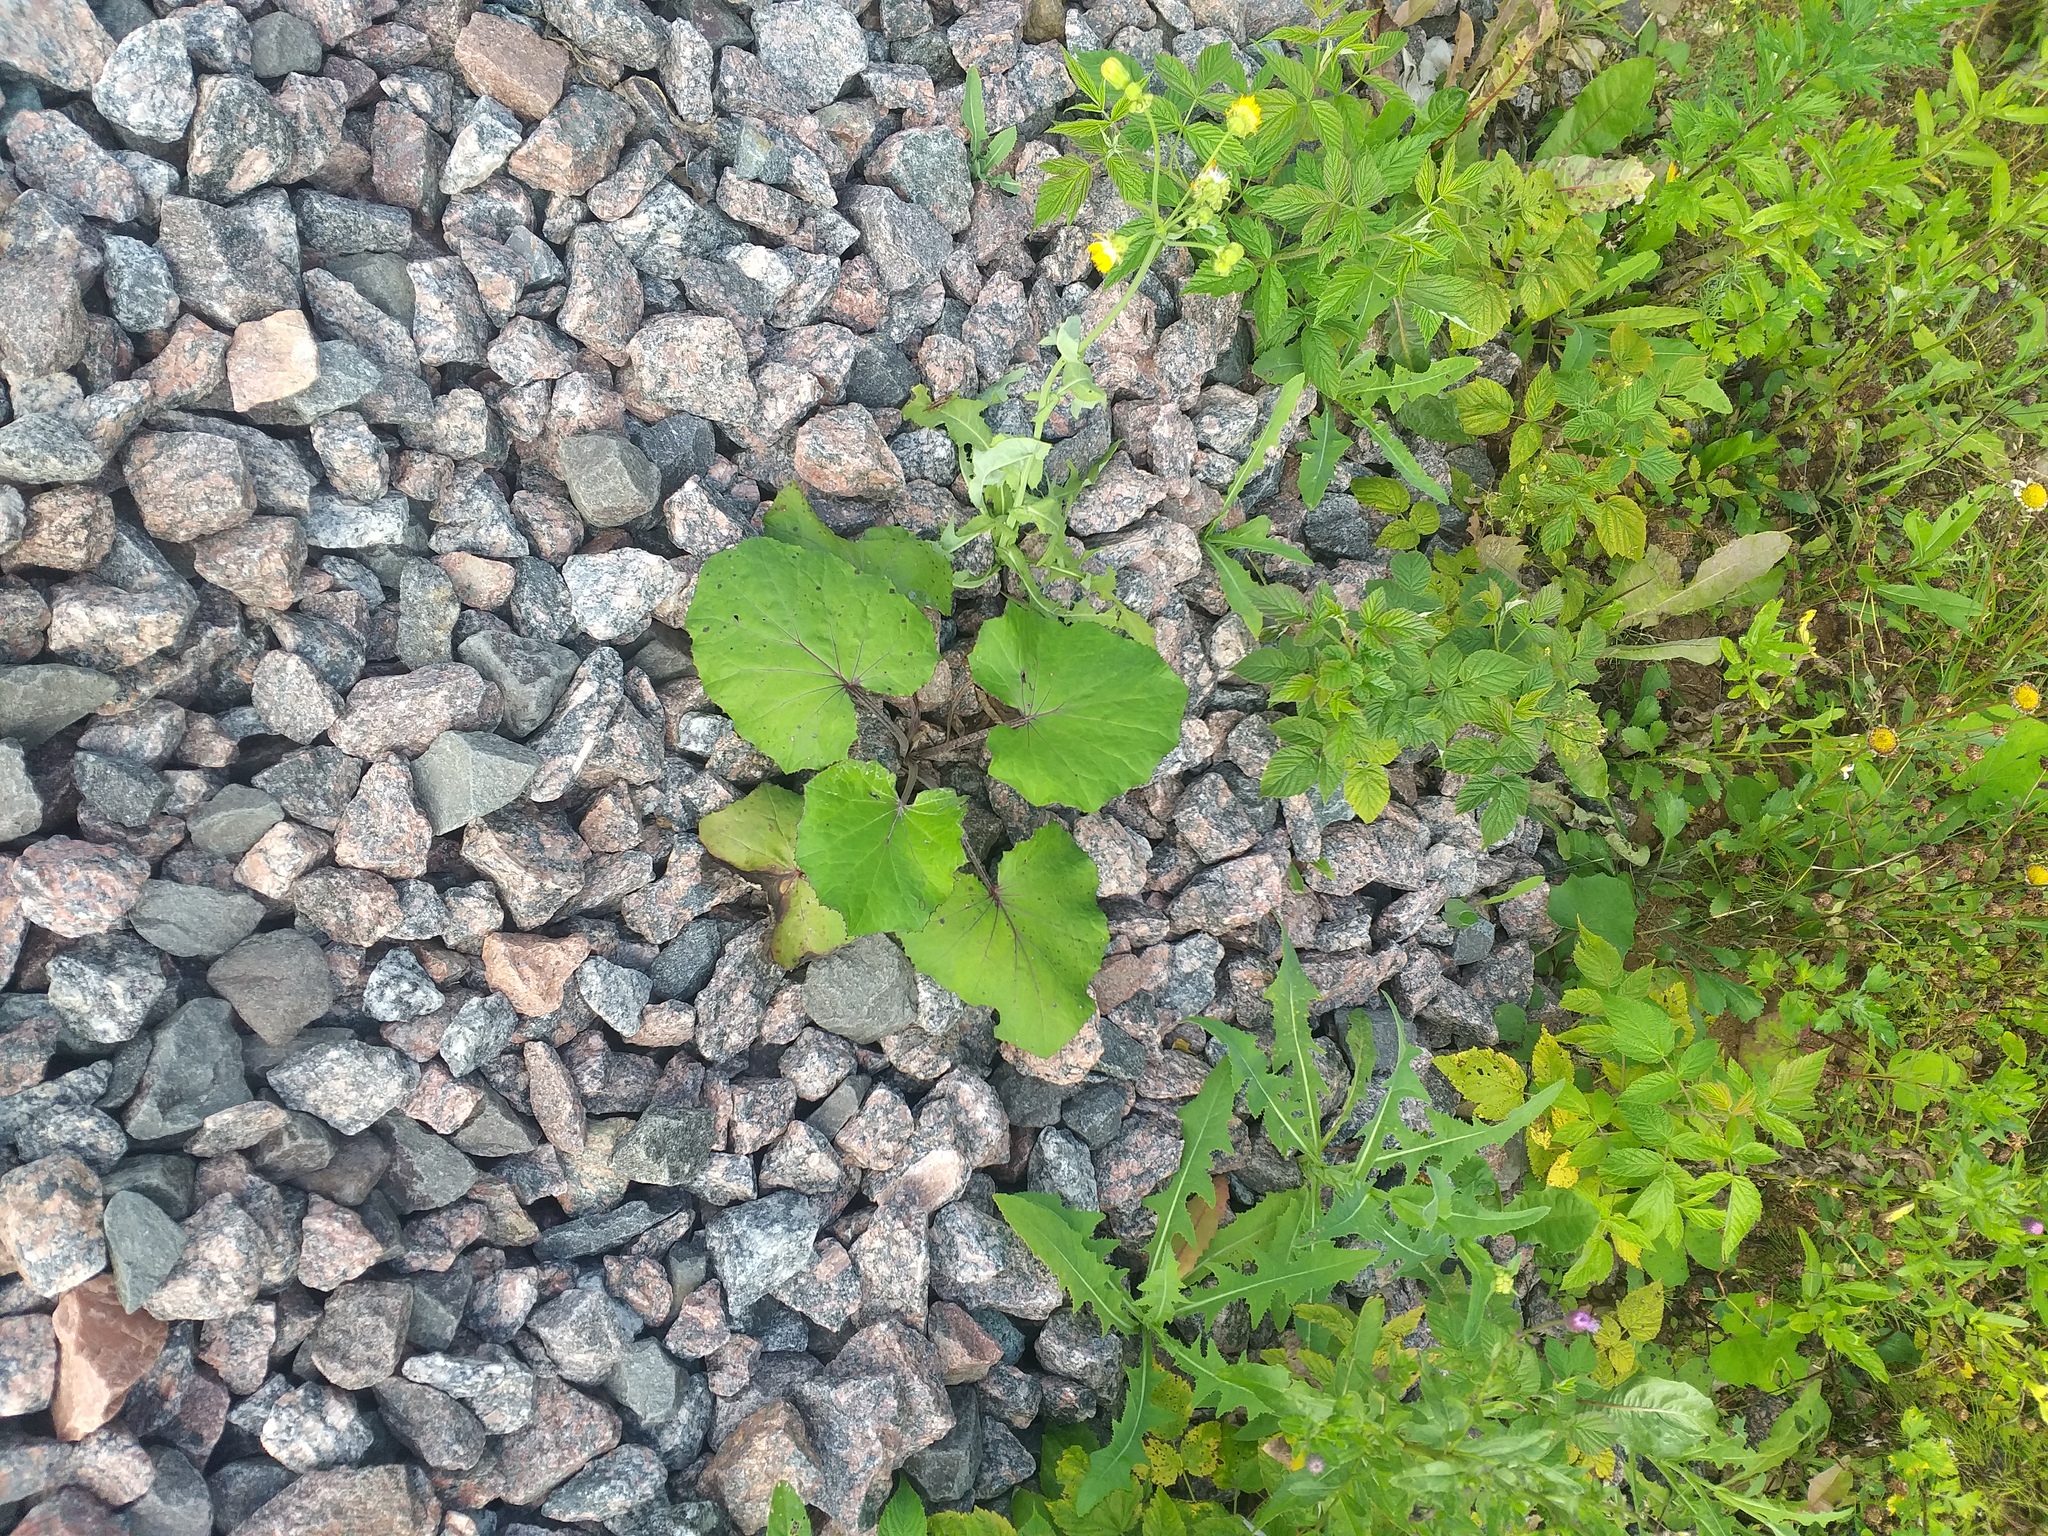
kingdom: Plantae
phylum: Tracheophyta
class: Magnoliopsida
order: Asterales
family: Asteraceae
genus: Tussilago
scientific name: Tussilago farfara
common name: Coltsfoot
